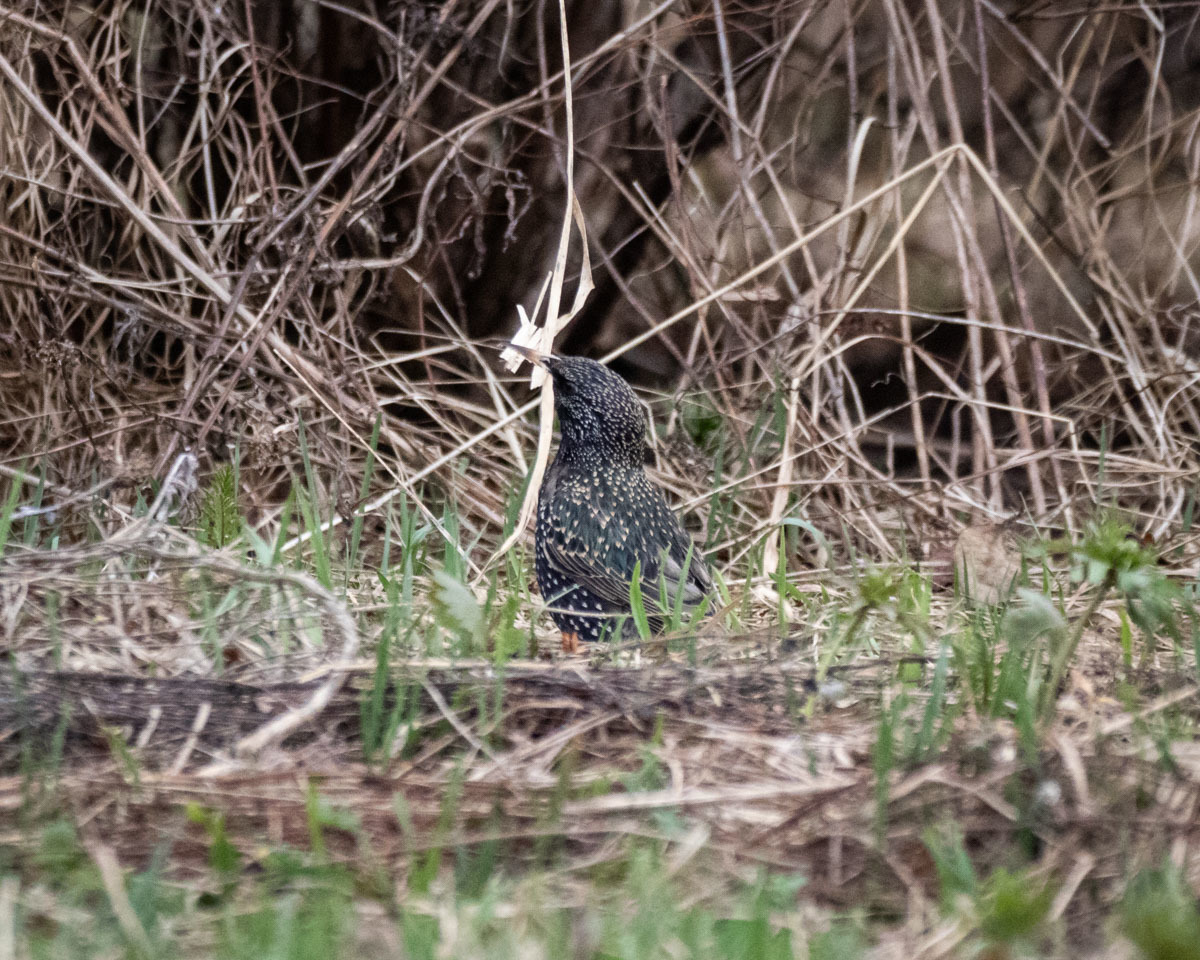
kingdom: Animalia
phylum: Chordata
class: Aves
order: Passeriformes
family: Sturnidae
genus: Sturnus
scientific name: Sturnus vulgaris
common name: Common starling
